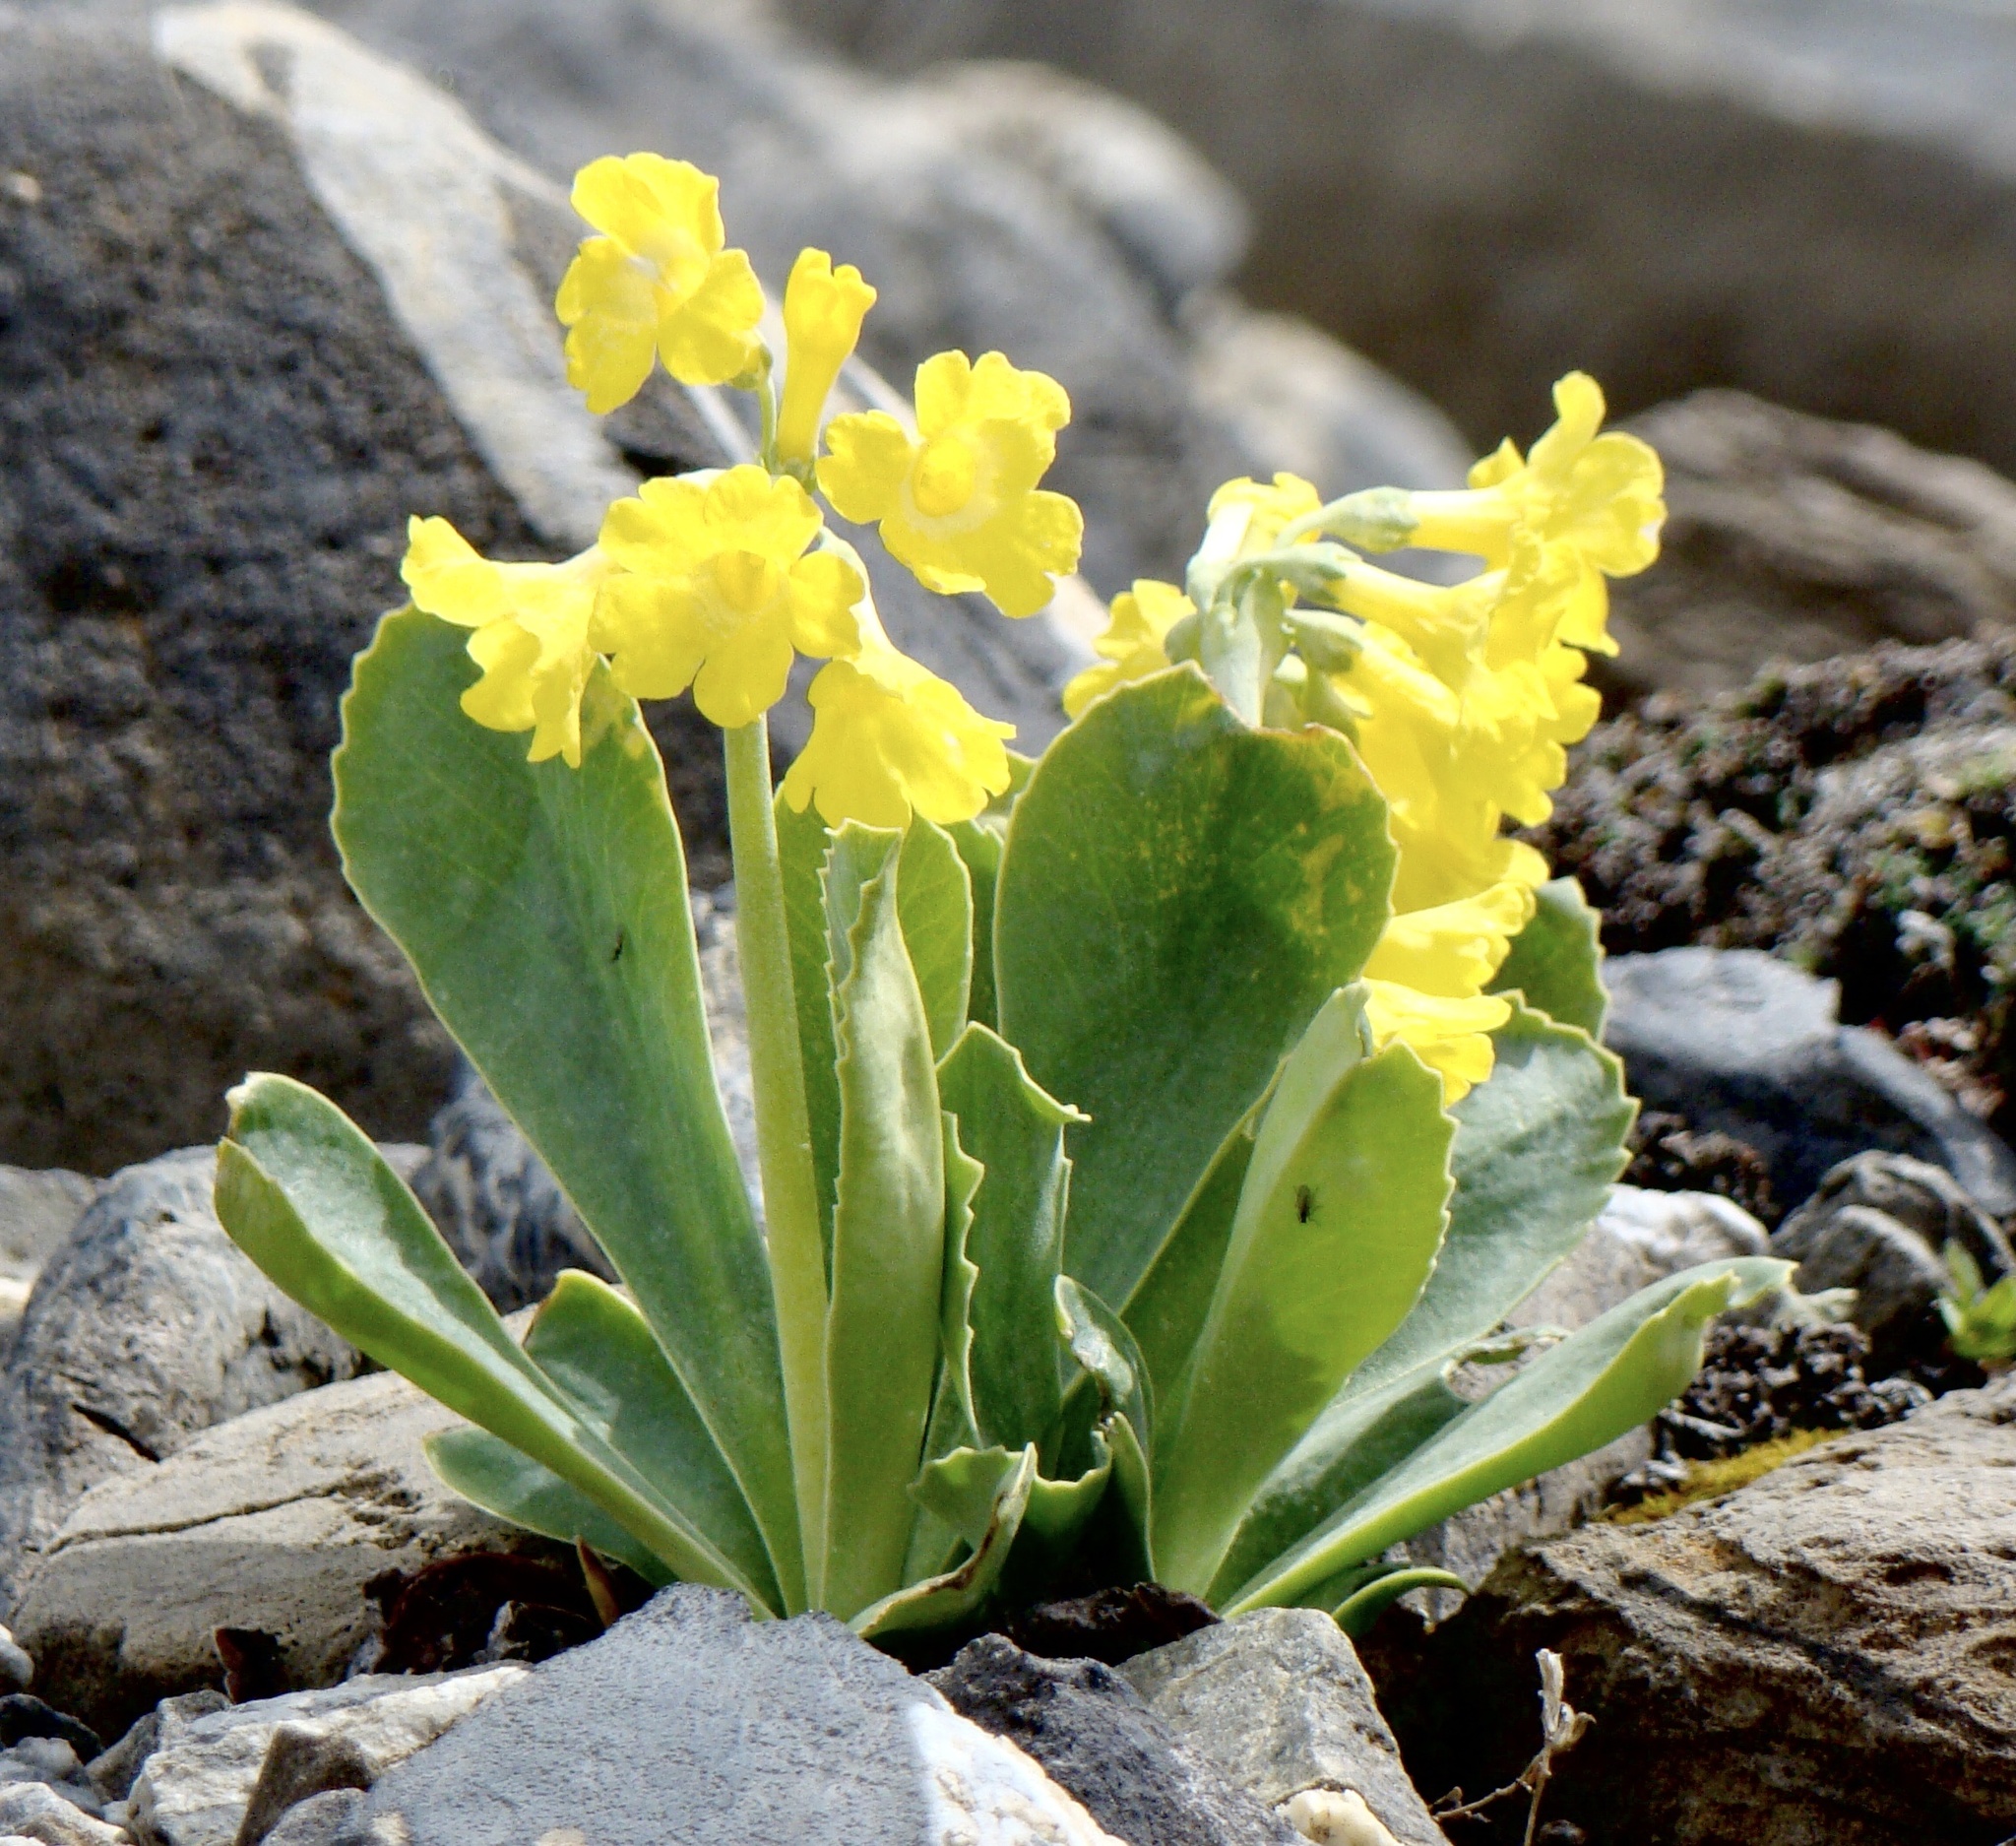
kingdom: Plantae
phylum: Tracheophyta
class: Magnoliopsida
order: Ericales
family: Primulaceae
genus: Primula
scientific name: Primula auricula
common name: Auricula
